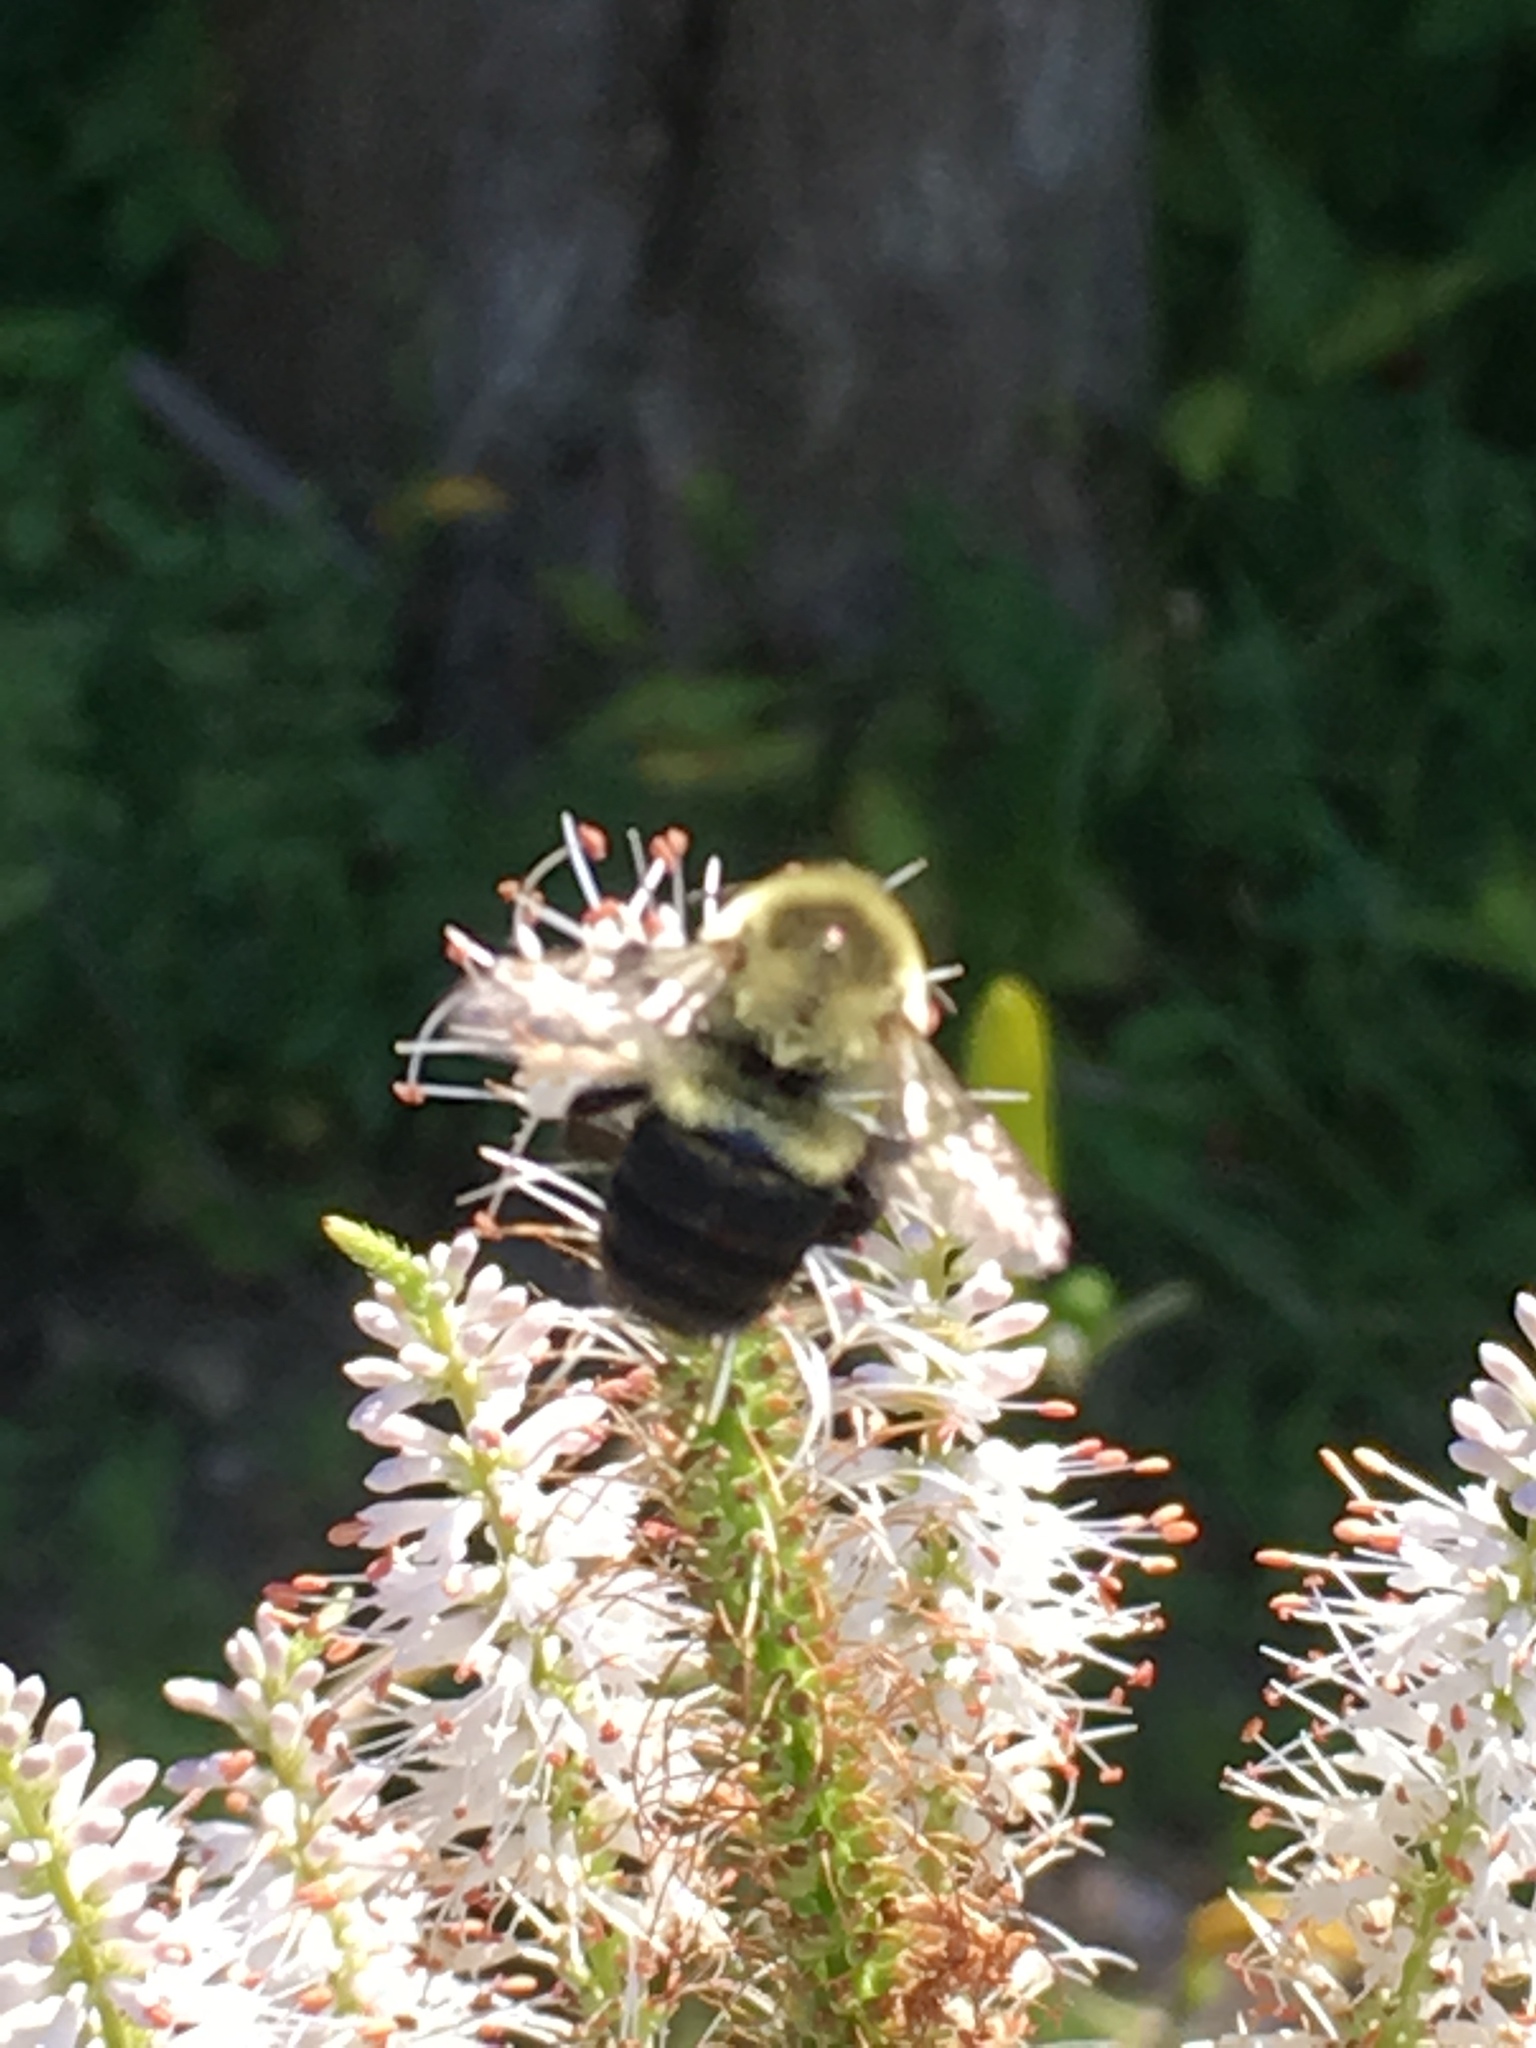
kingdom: Animalia
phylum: Arthropoda
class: Insecta
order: Hymenoptera
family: Apidae
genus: Bombus
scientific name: Bombus impatiens
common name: Common eastern bumble bee
